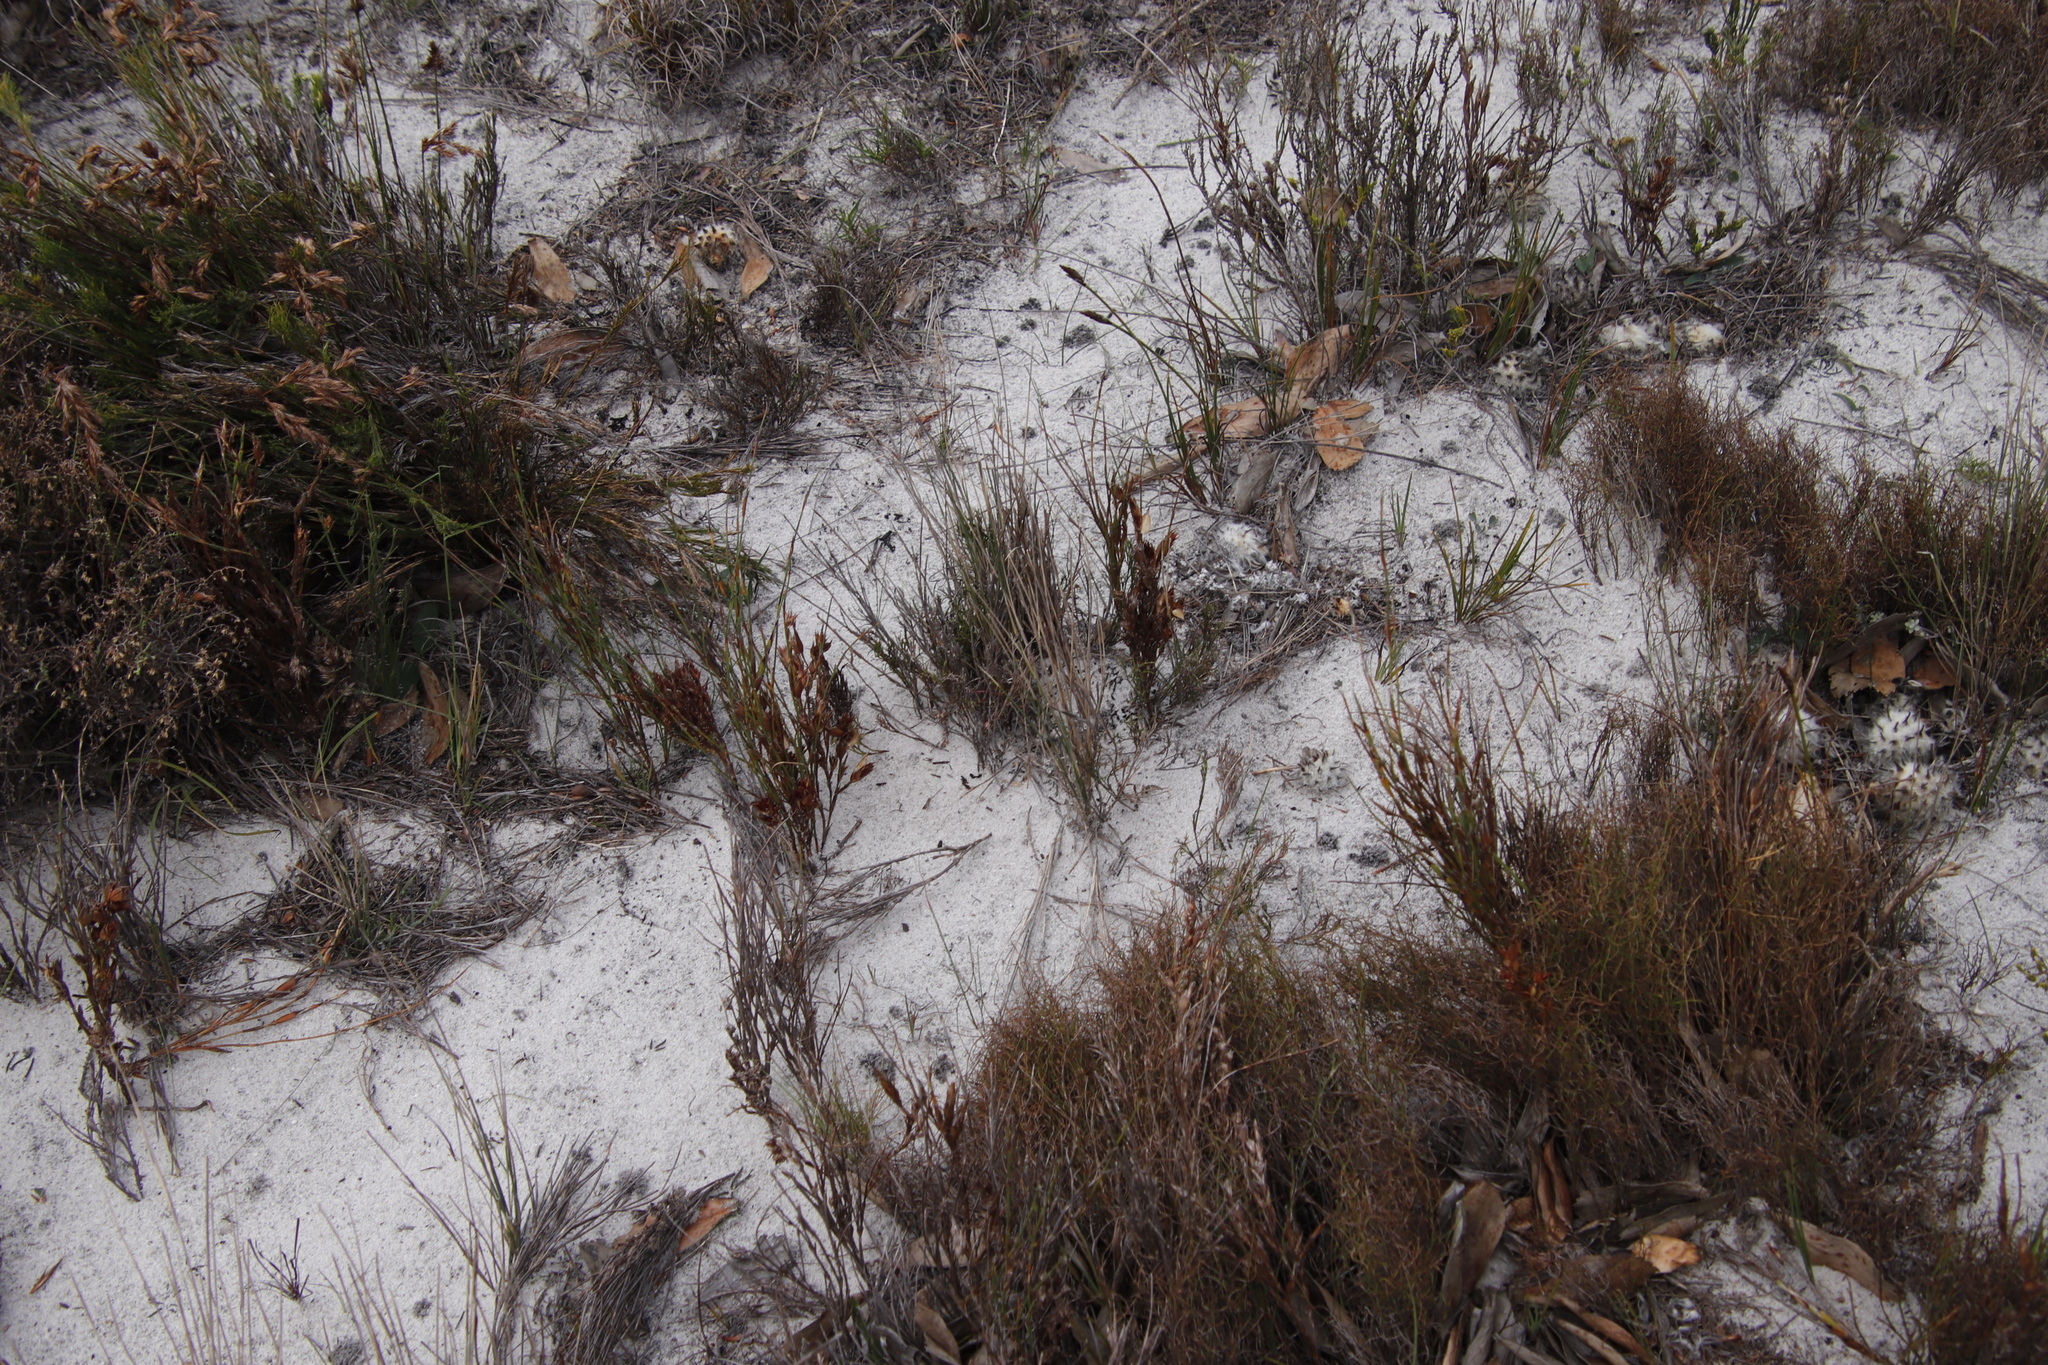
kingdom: Plantae
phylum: Tracheophyta
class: Liliopsida
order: Poales
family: Restionaceae
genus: Willdenowia
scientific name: Willdenowia glomerata
